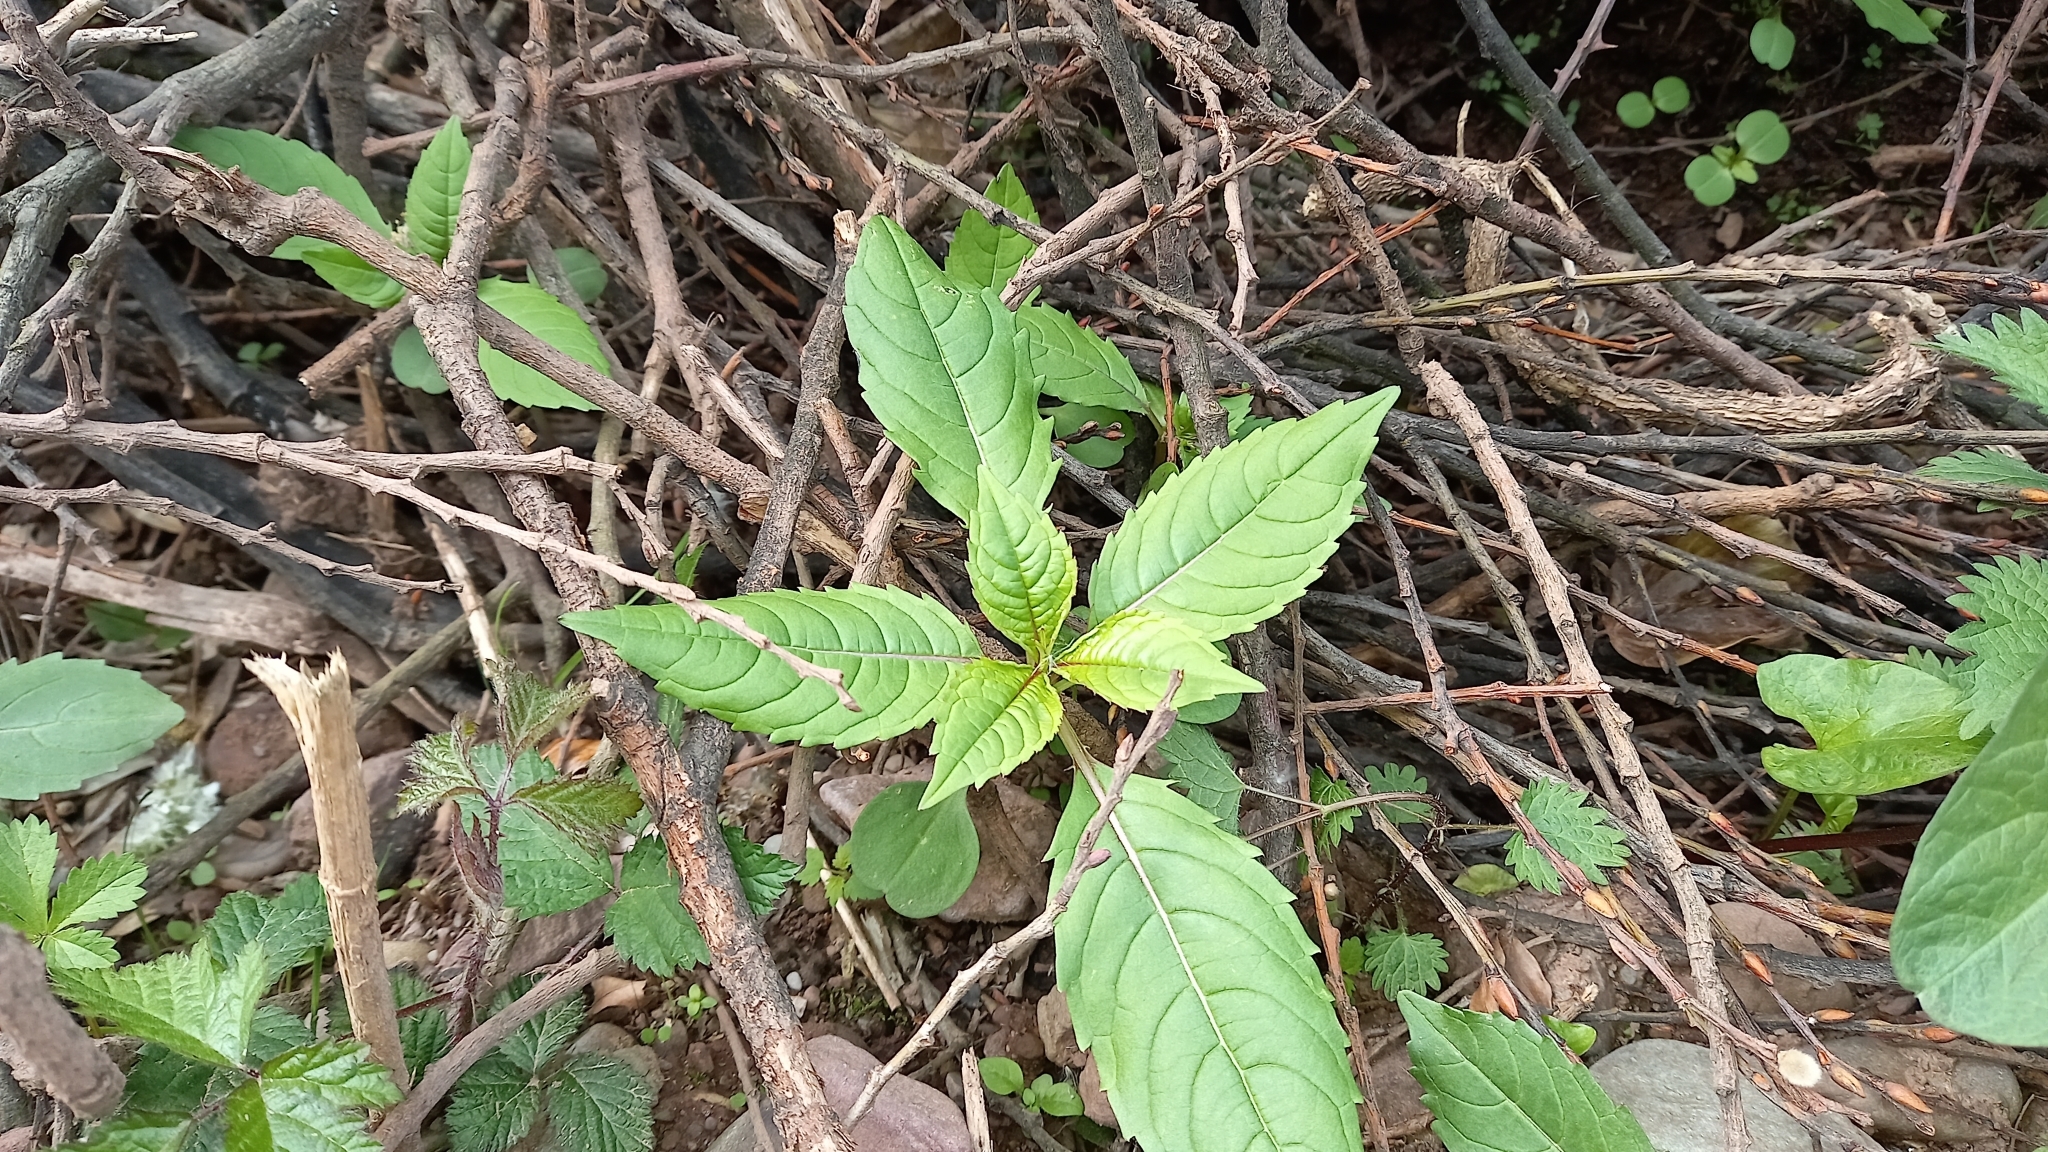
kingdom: Plantae
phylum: Tracheophyta
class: Magnoliopsida
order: Ericales
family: Balsaminaceae
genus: Impatiens
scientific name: Impatiens glandulifera
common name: Himalayan balsam
